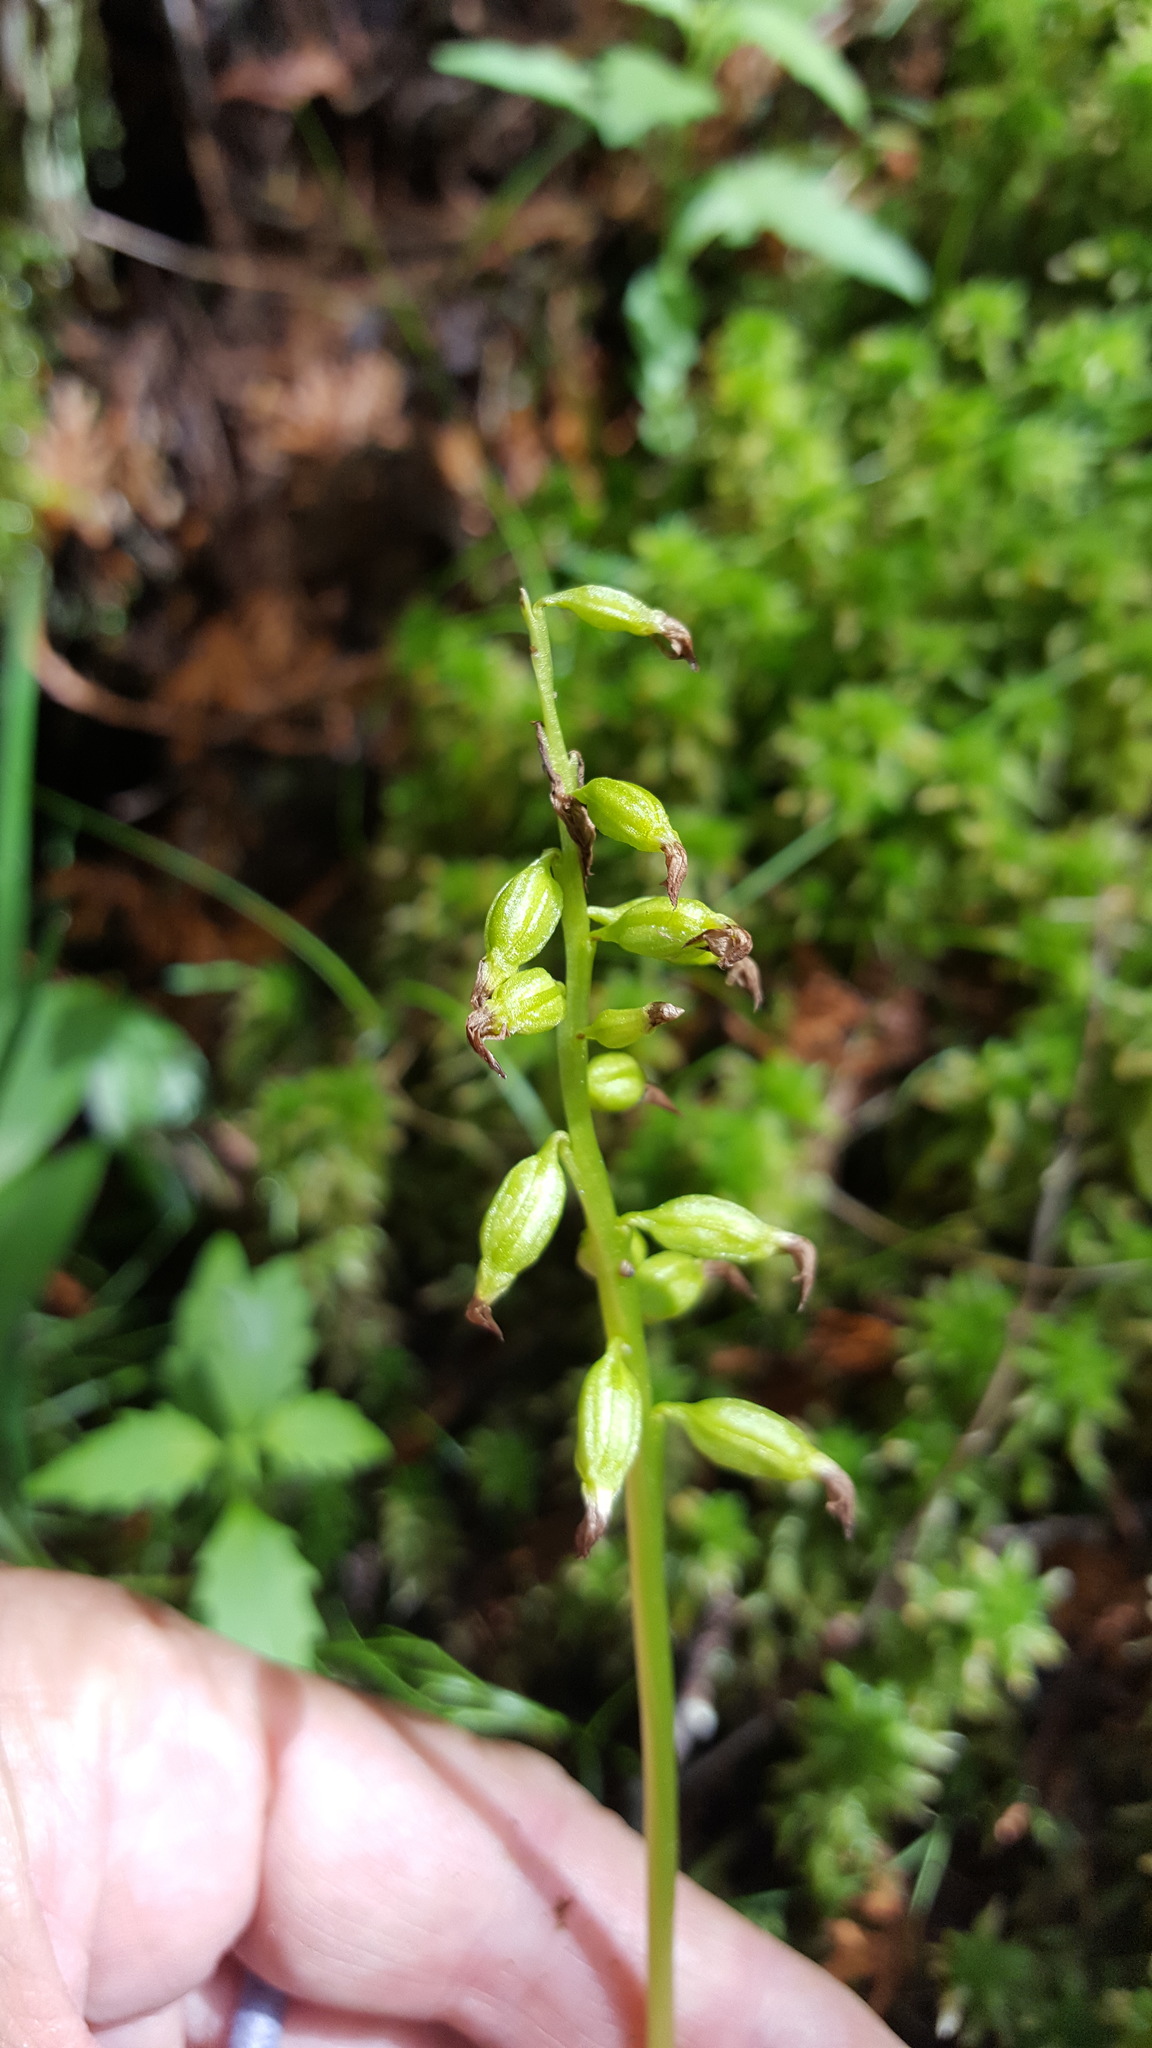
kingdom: Plantae
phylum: Tracheophyta
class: Liliopsida
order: Asparagales
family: Orchidaceae
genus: Corallorhiza
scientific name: Corallorhiza trifida
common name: Yellow coralroot
